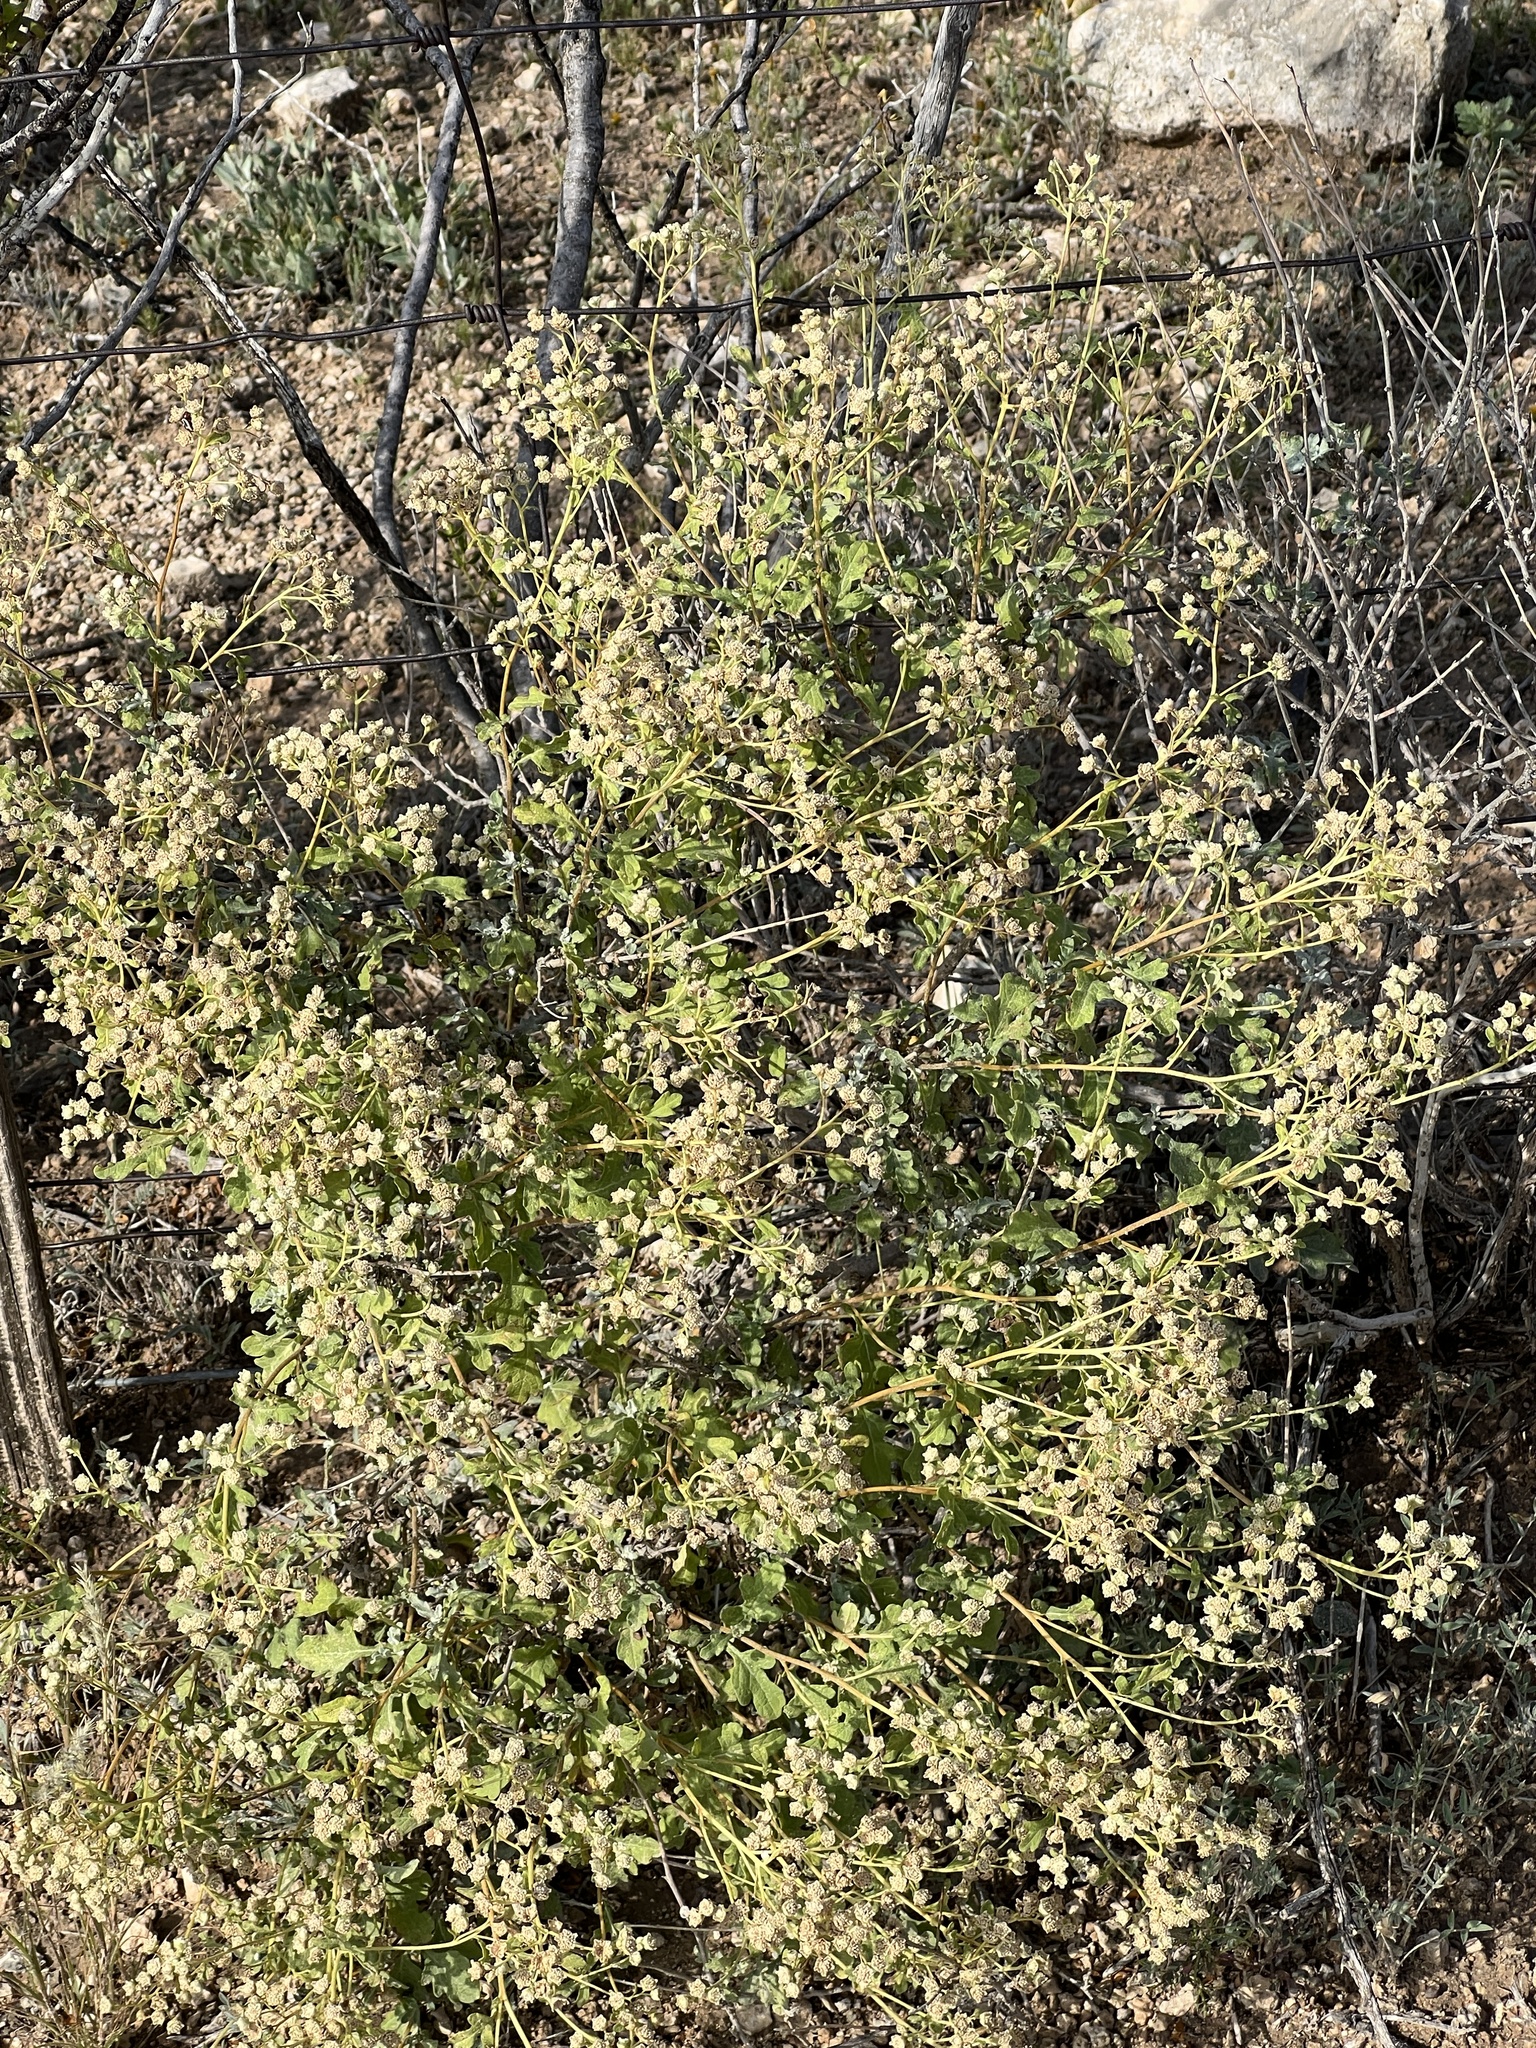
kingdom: Plantae
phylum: Tracheophyta
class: Magnoliopsida
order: Asterales
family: Asteraceae
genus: Parthenium
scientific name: Parthenium incanum
